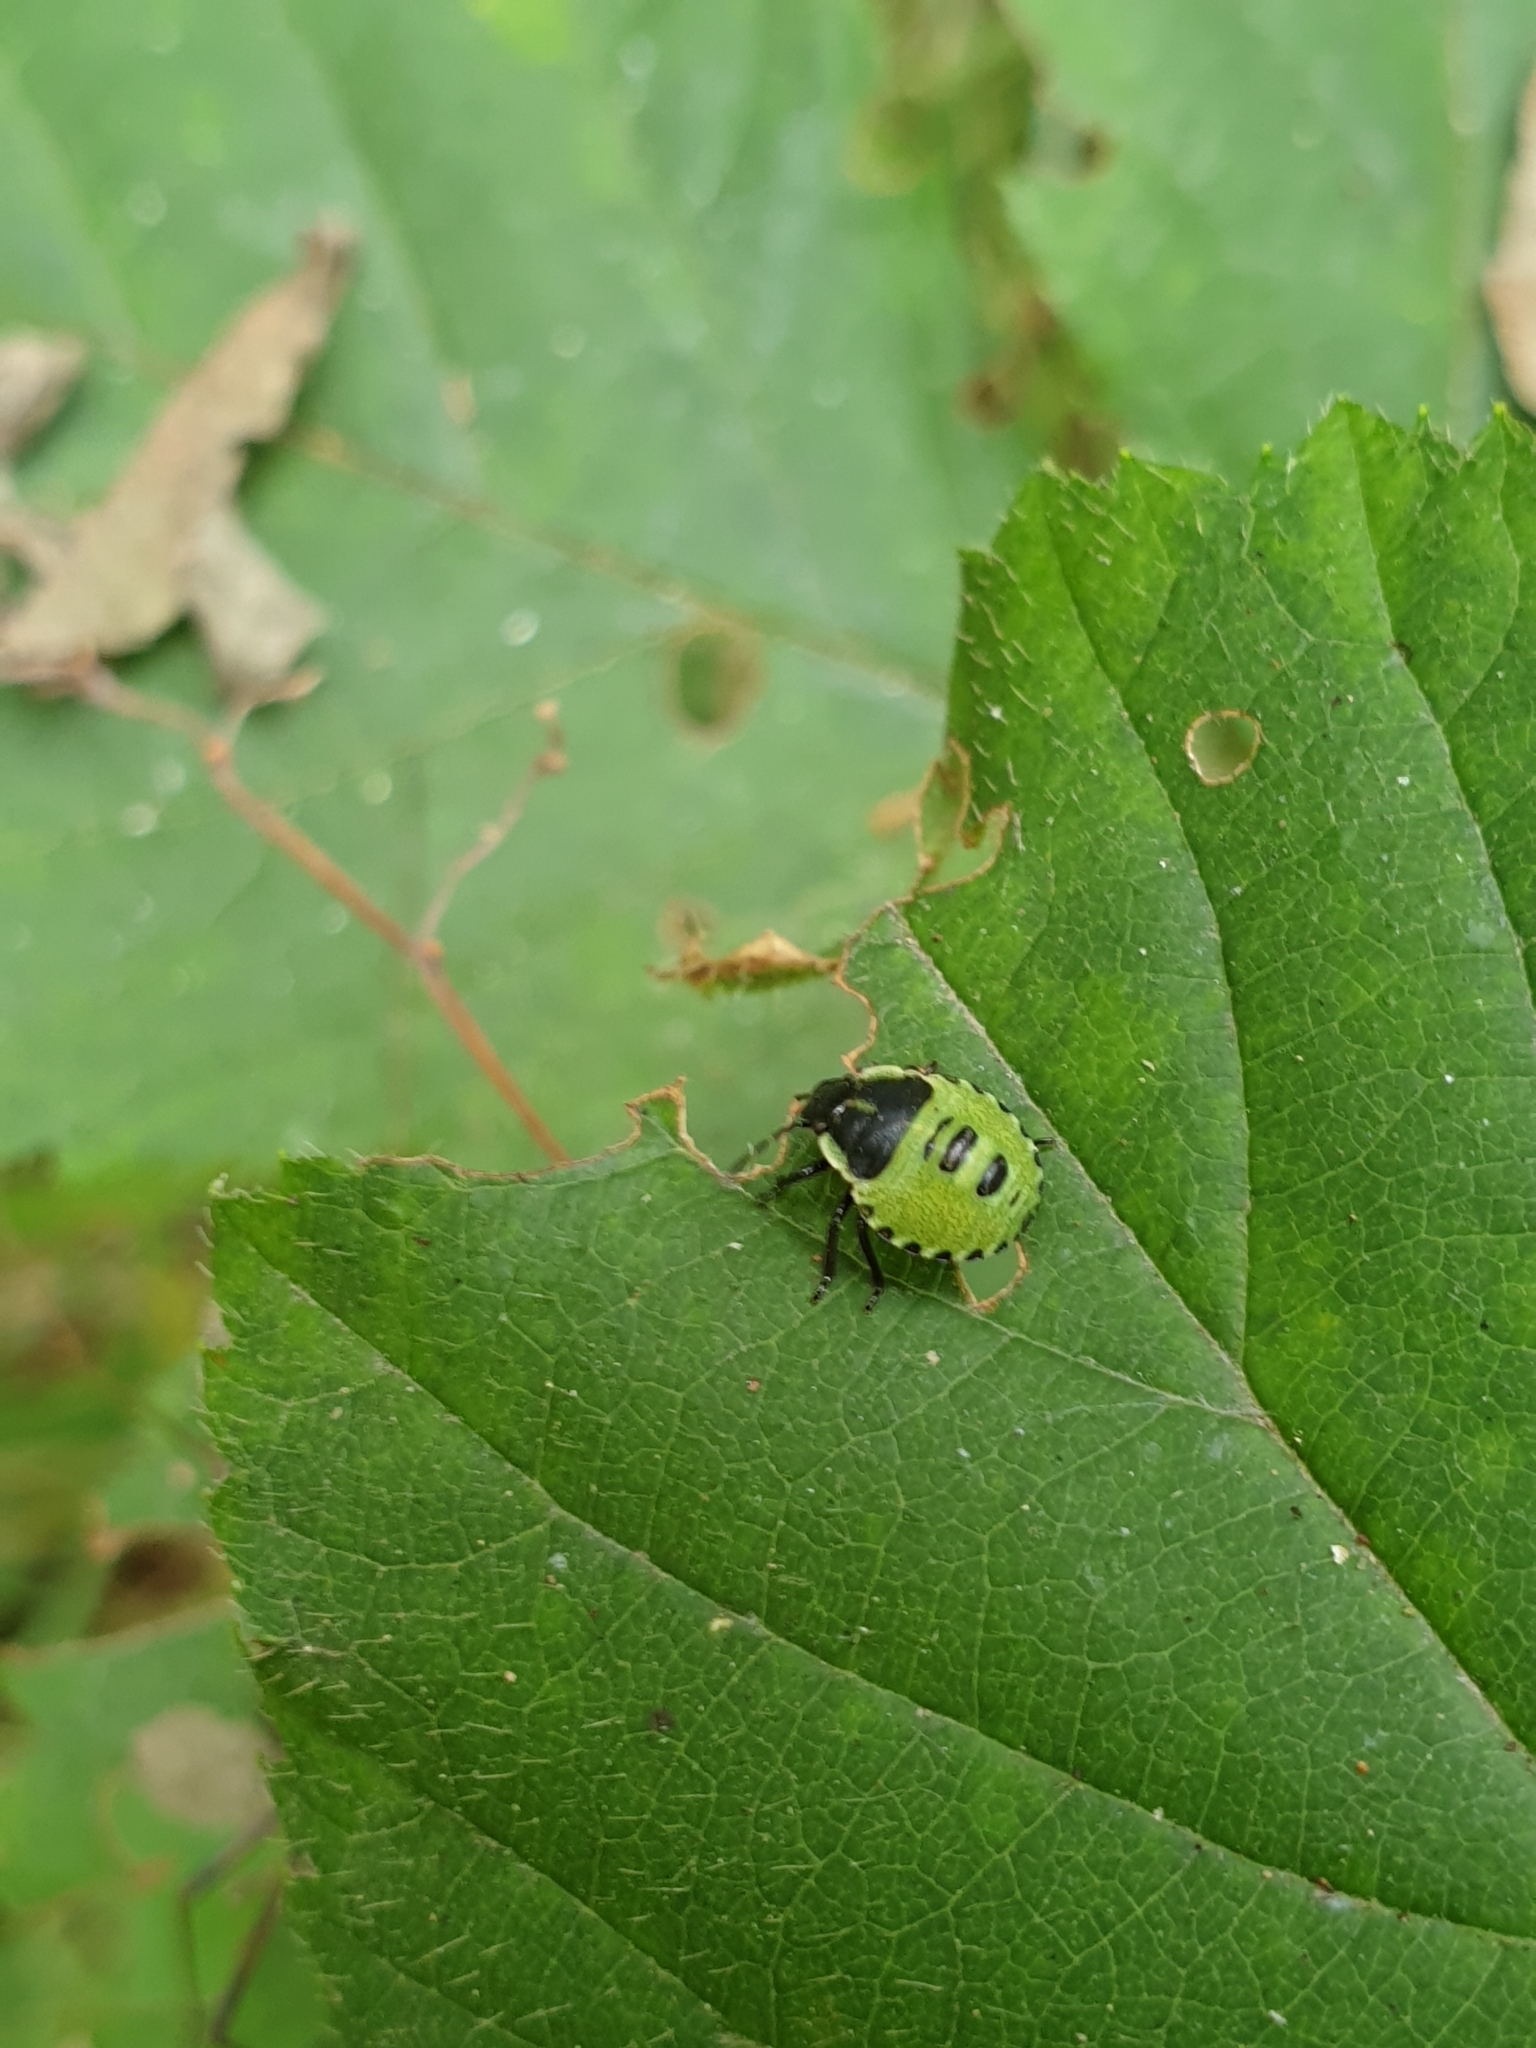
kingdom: Animalia
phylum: Arthropoda
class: Insecta
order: Hemiptera
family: Pentatomidae
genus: Palomena
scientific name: Palomena prasina
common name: Green shieldbug
